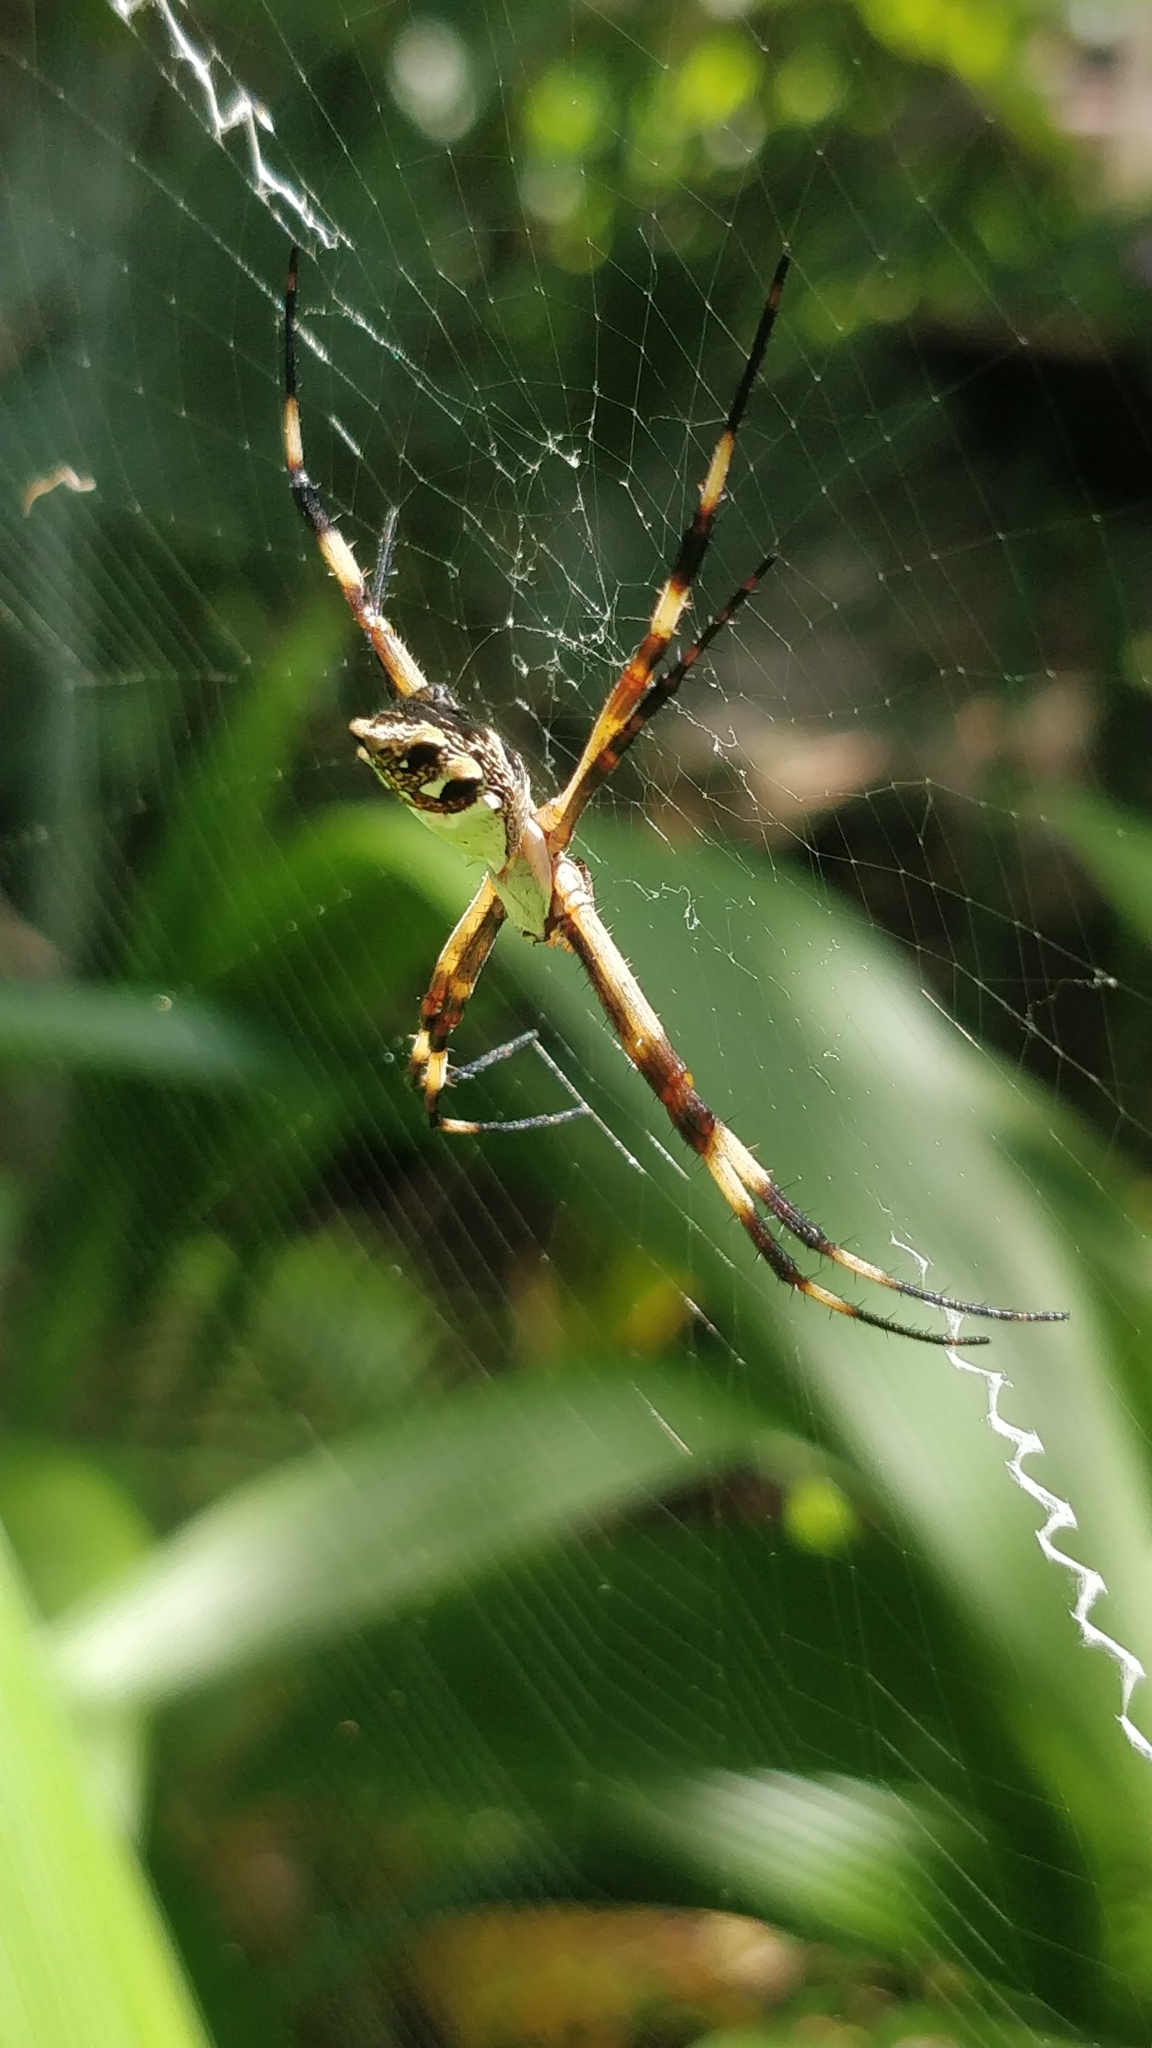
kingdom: Animalia
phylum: Arthropoda
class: Arachnida
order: Araneae
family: Araneidae
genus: Argiope
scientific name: Argiope argentata
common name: Orb weavers
